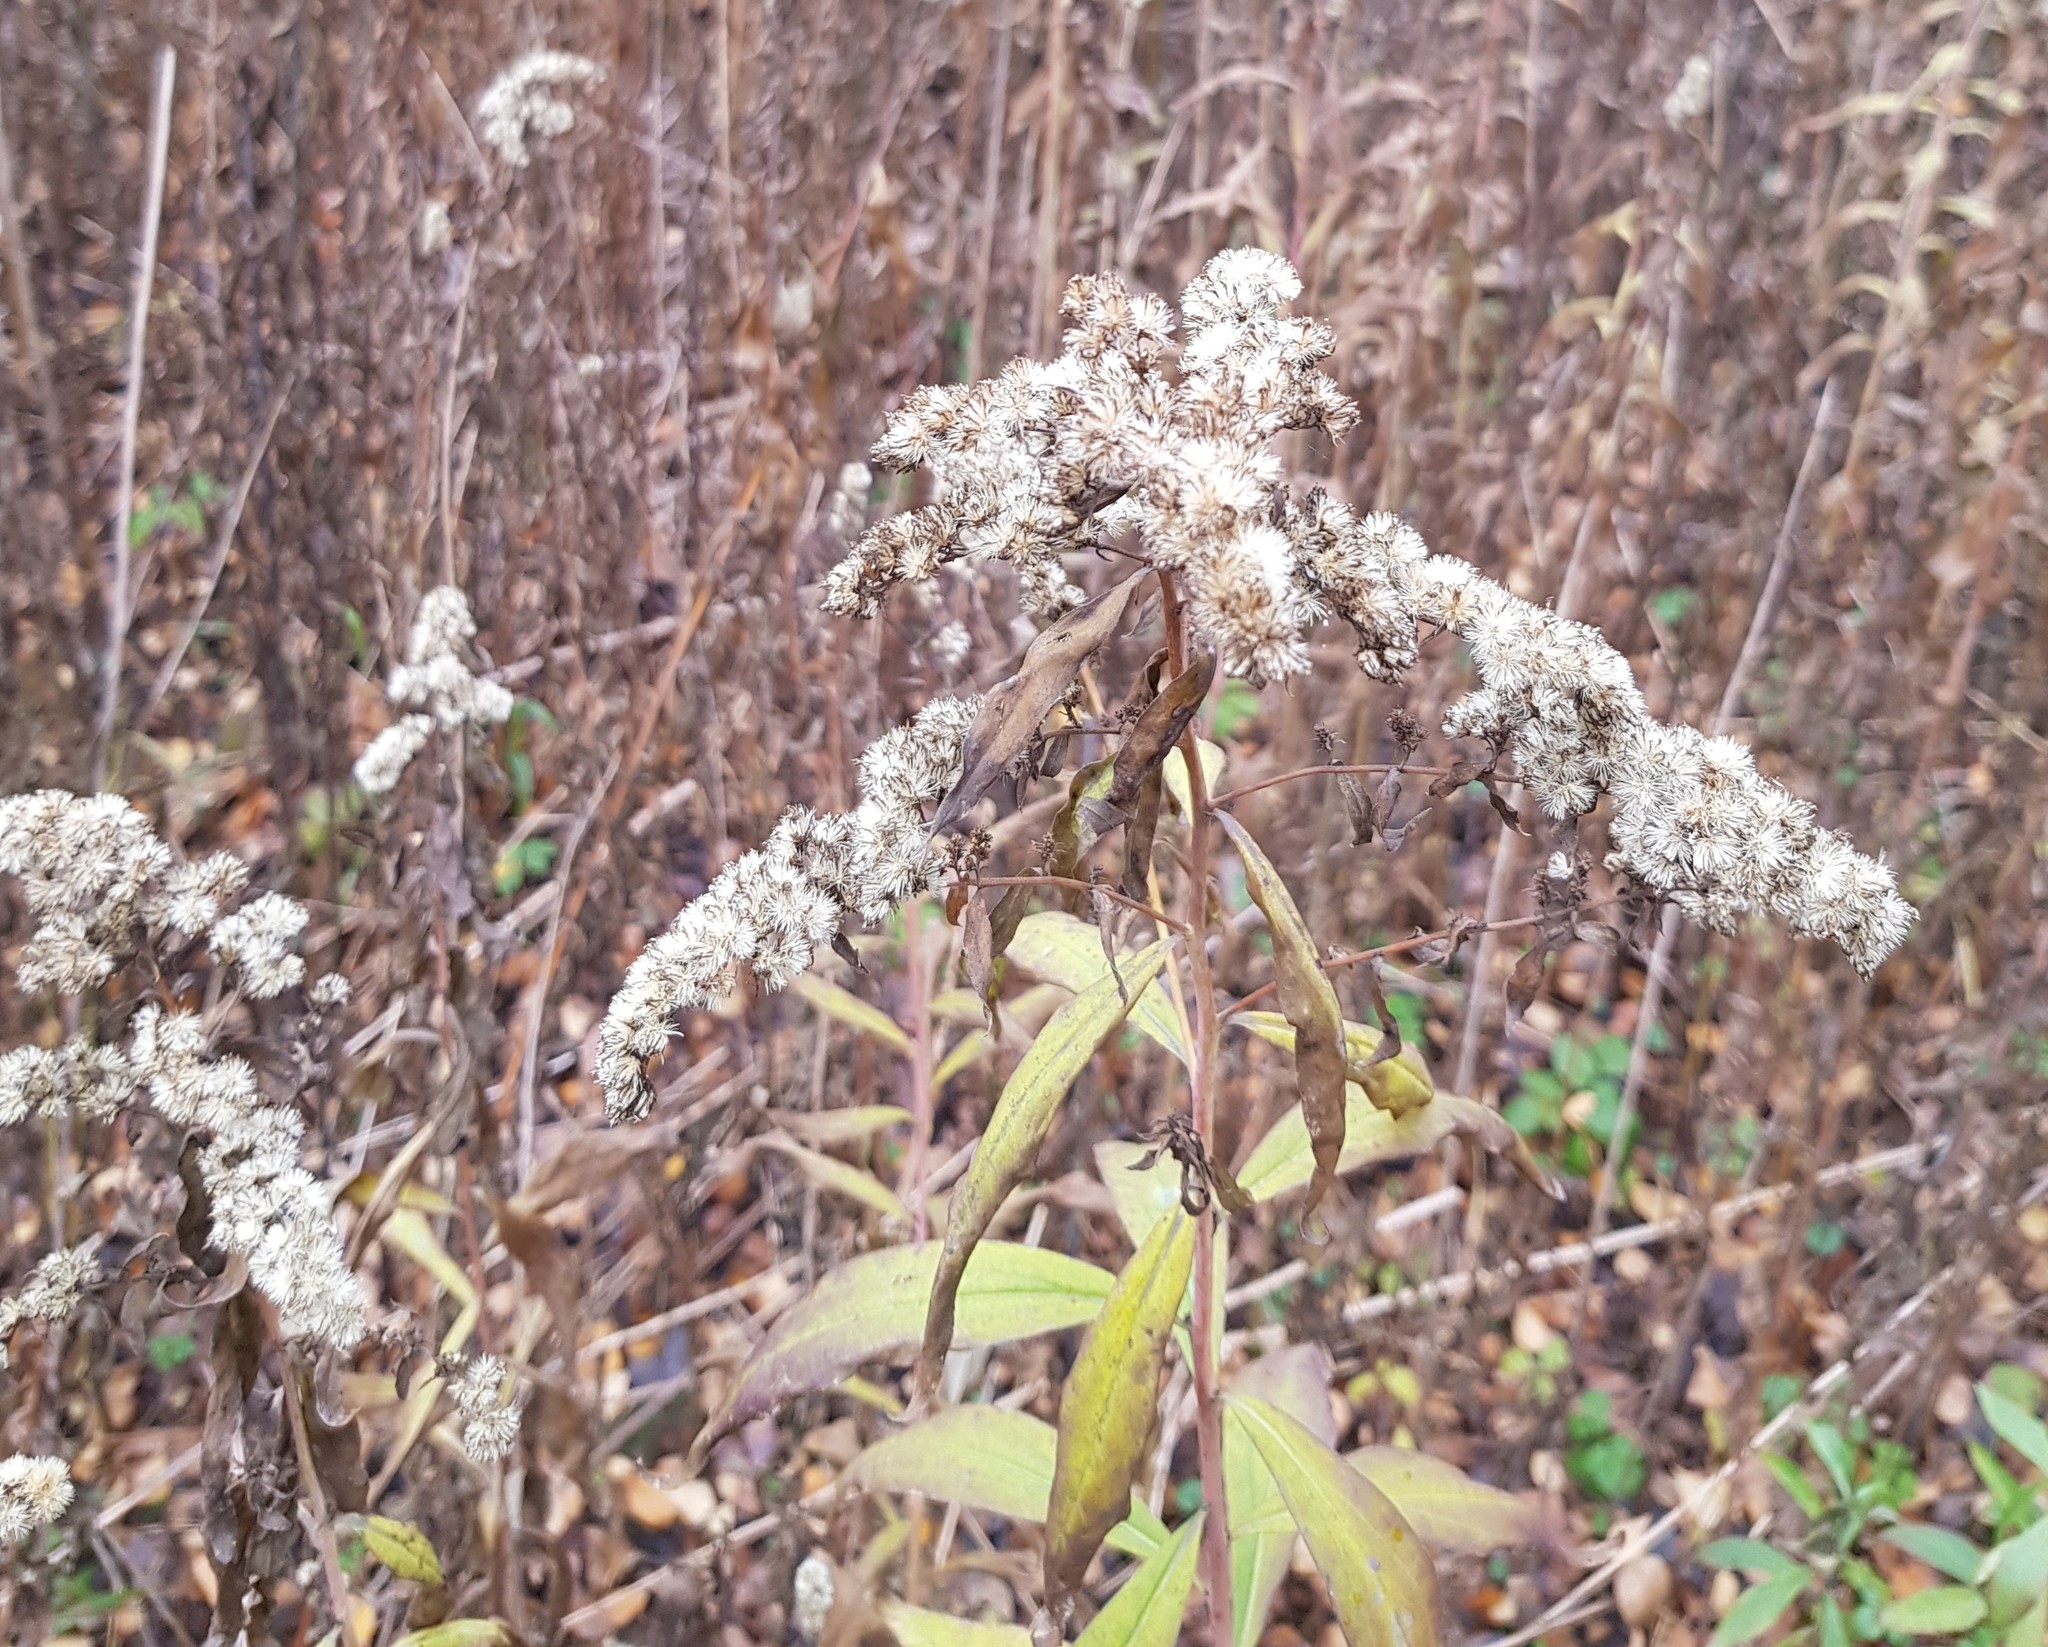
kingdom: Plantae
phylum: Tracheophyta
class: Magnoliopsida
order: Asterales
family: Asteraceae
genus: Solidago
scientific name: Solidago gigantea
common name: Giant goldenrod
